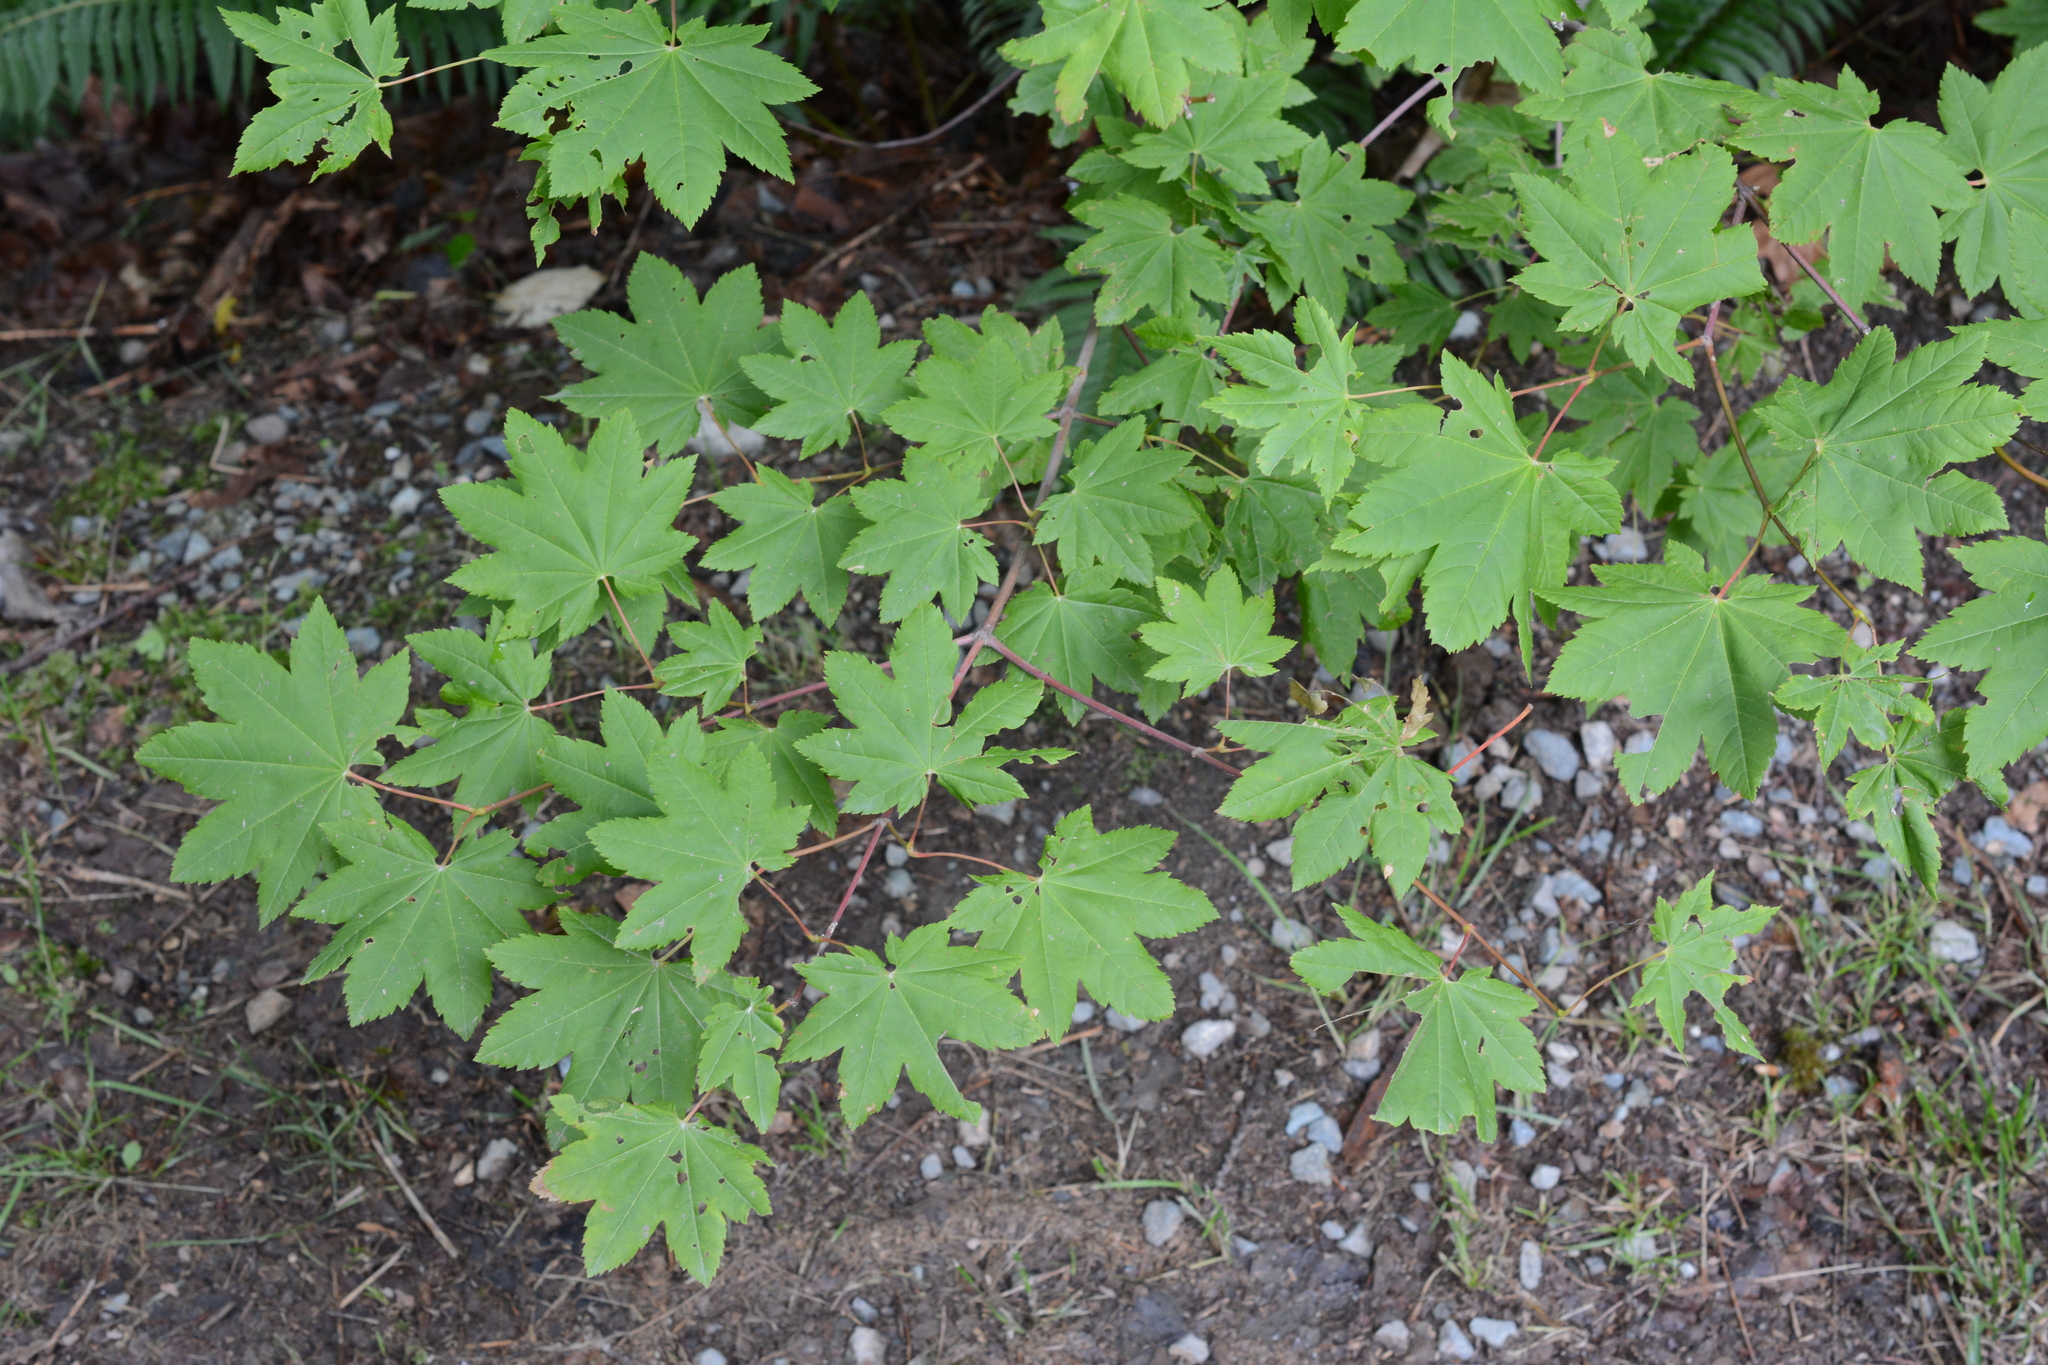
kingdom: Plantae
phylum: Tracheophyta
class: Magnoliopsida
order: Sapindales
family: Sapindaceae
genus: Acer
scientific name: Acer circinatum
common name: Vine maple
